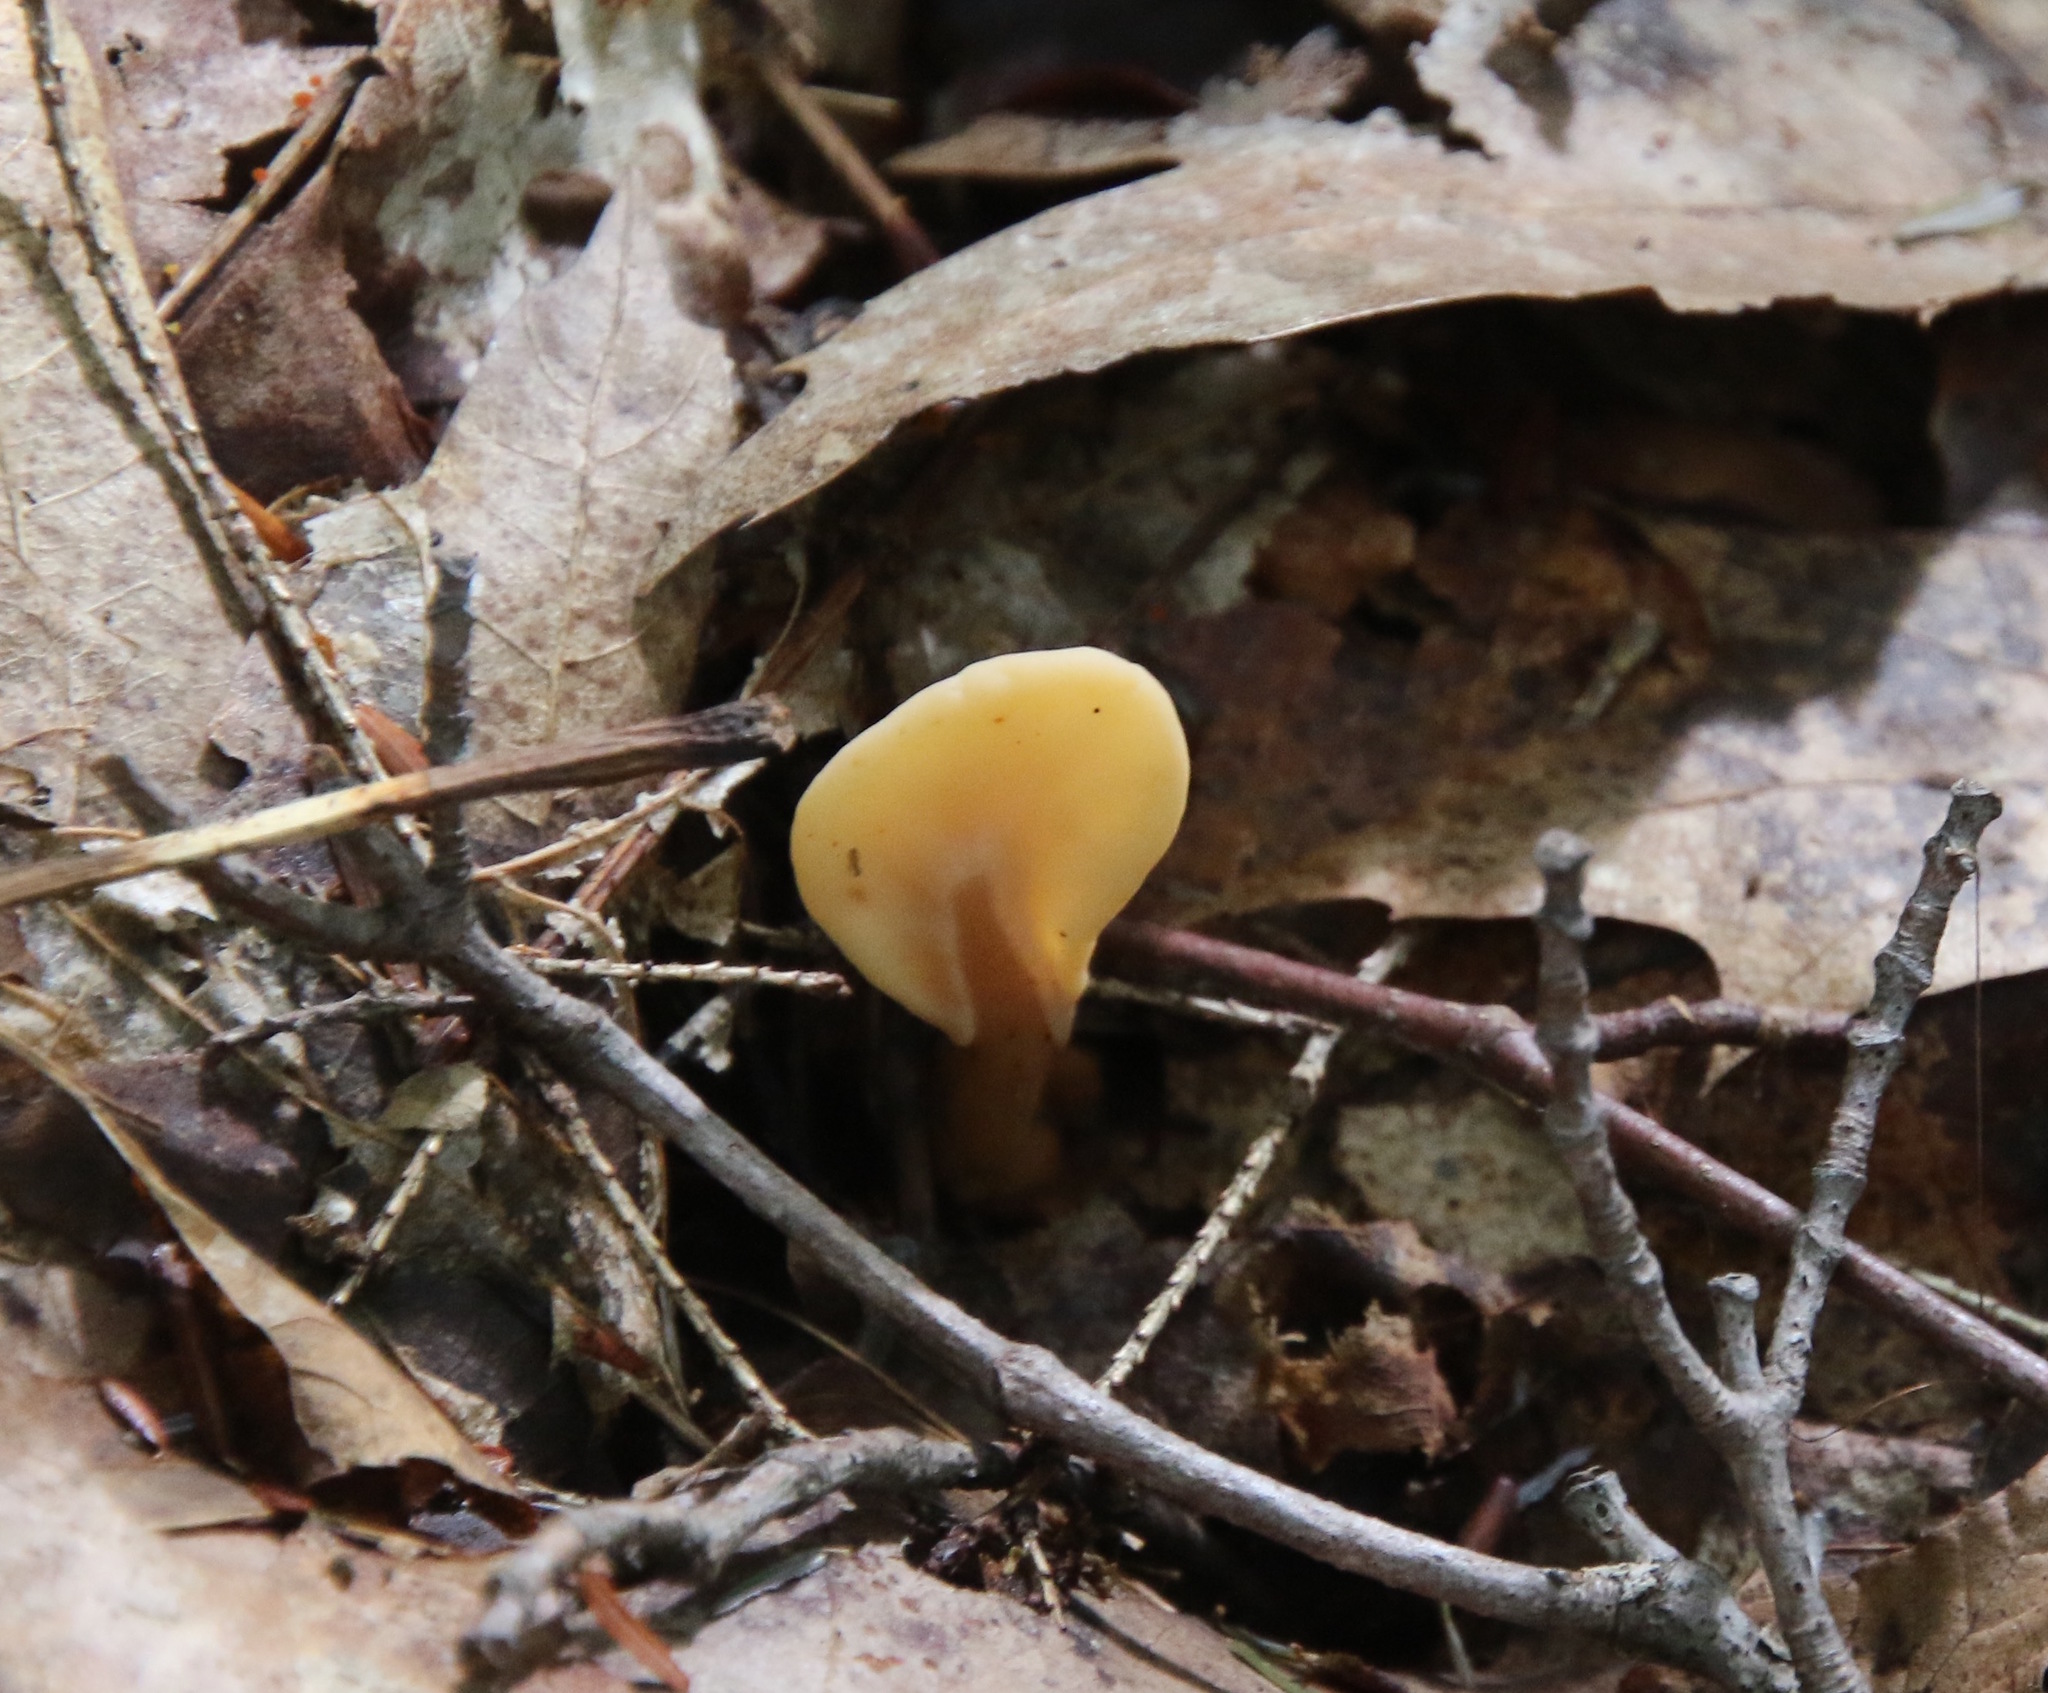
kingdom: Fungi
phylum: Ascomycota
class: Leotiomycetes
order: Rhytismatales
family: Cudoniaceae
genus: Spathulariopsis
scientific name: Spathulariopsis velutipes
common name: Velvet-foot fairy fan
